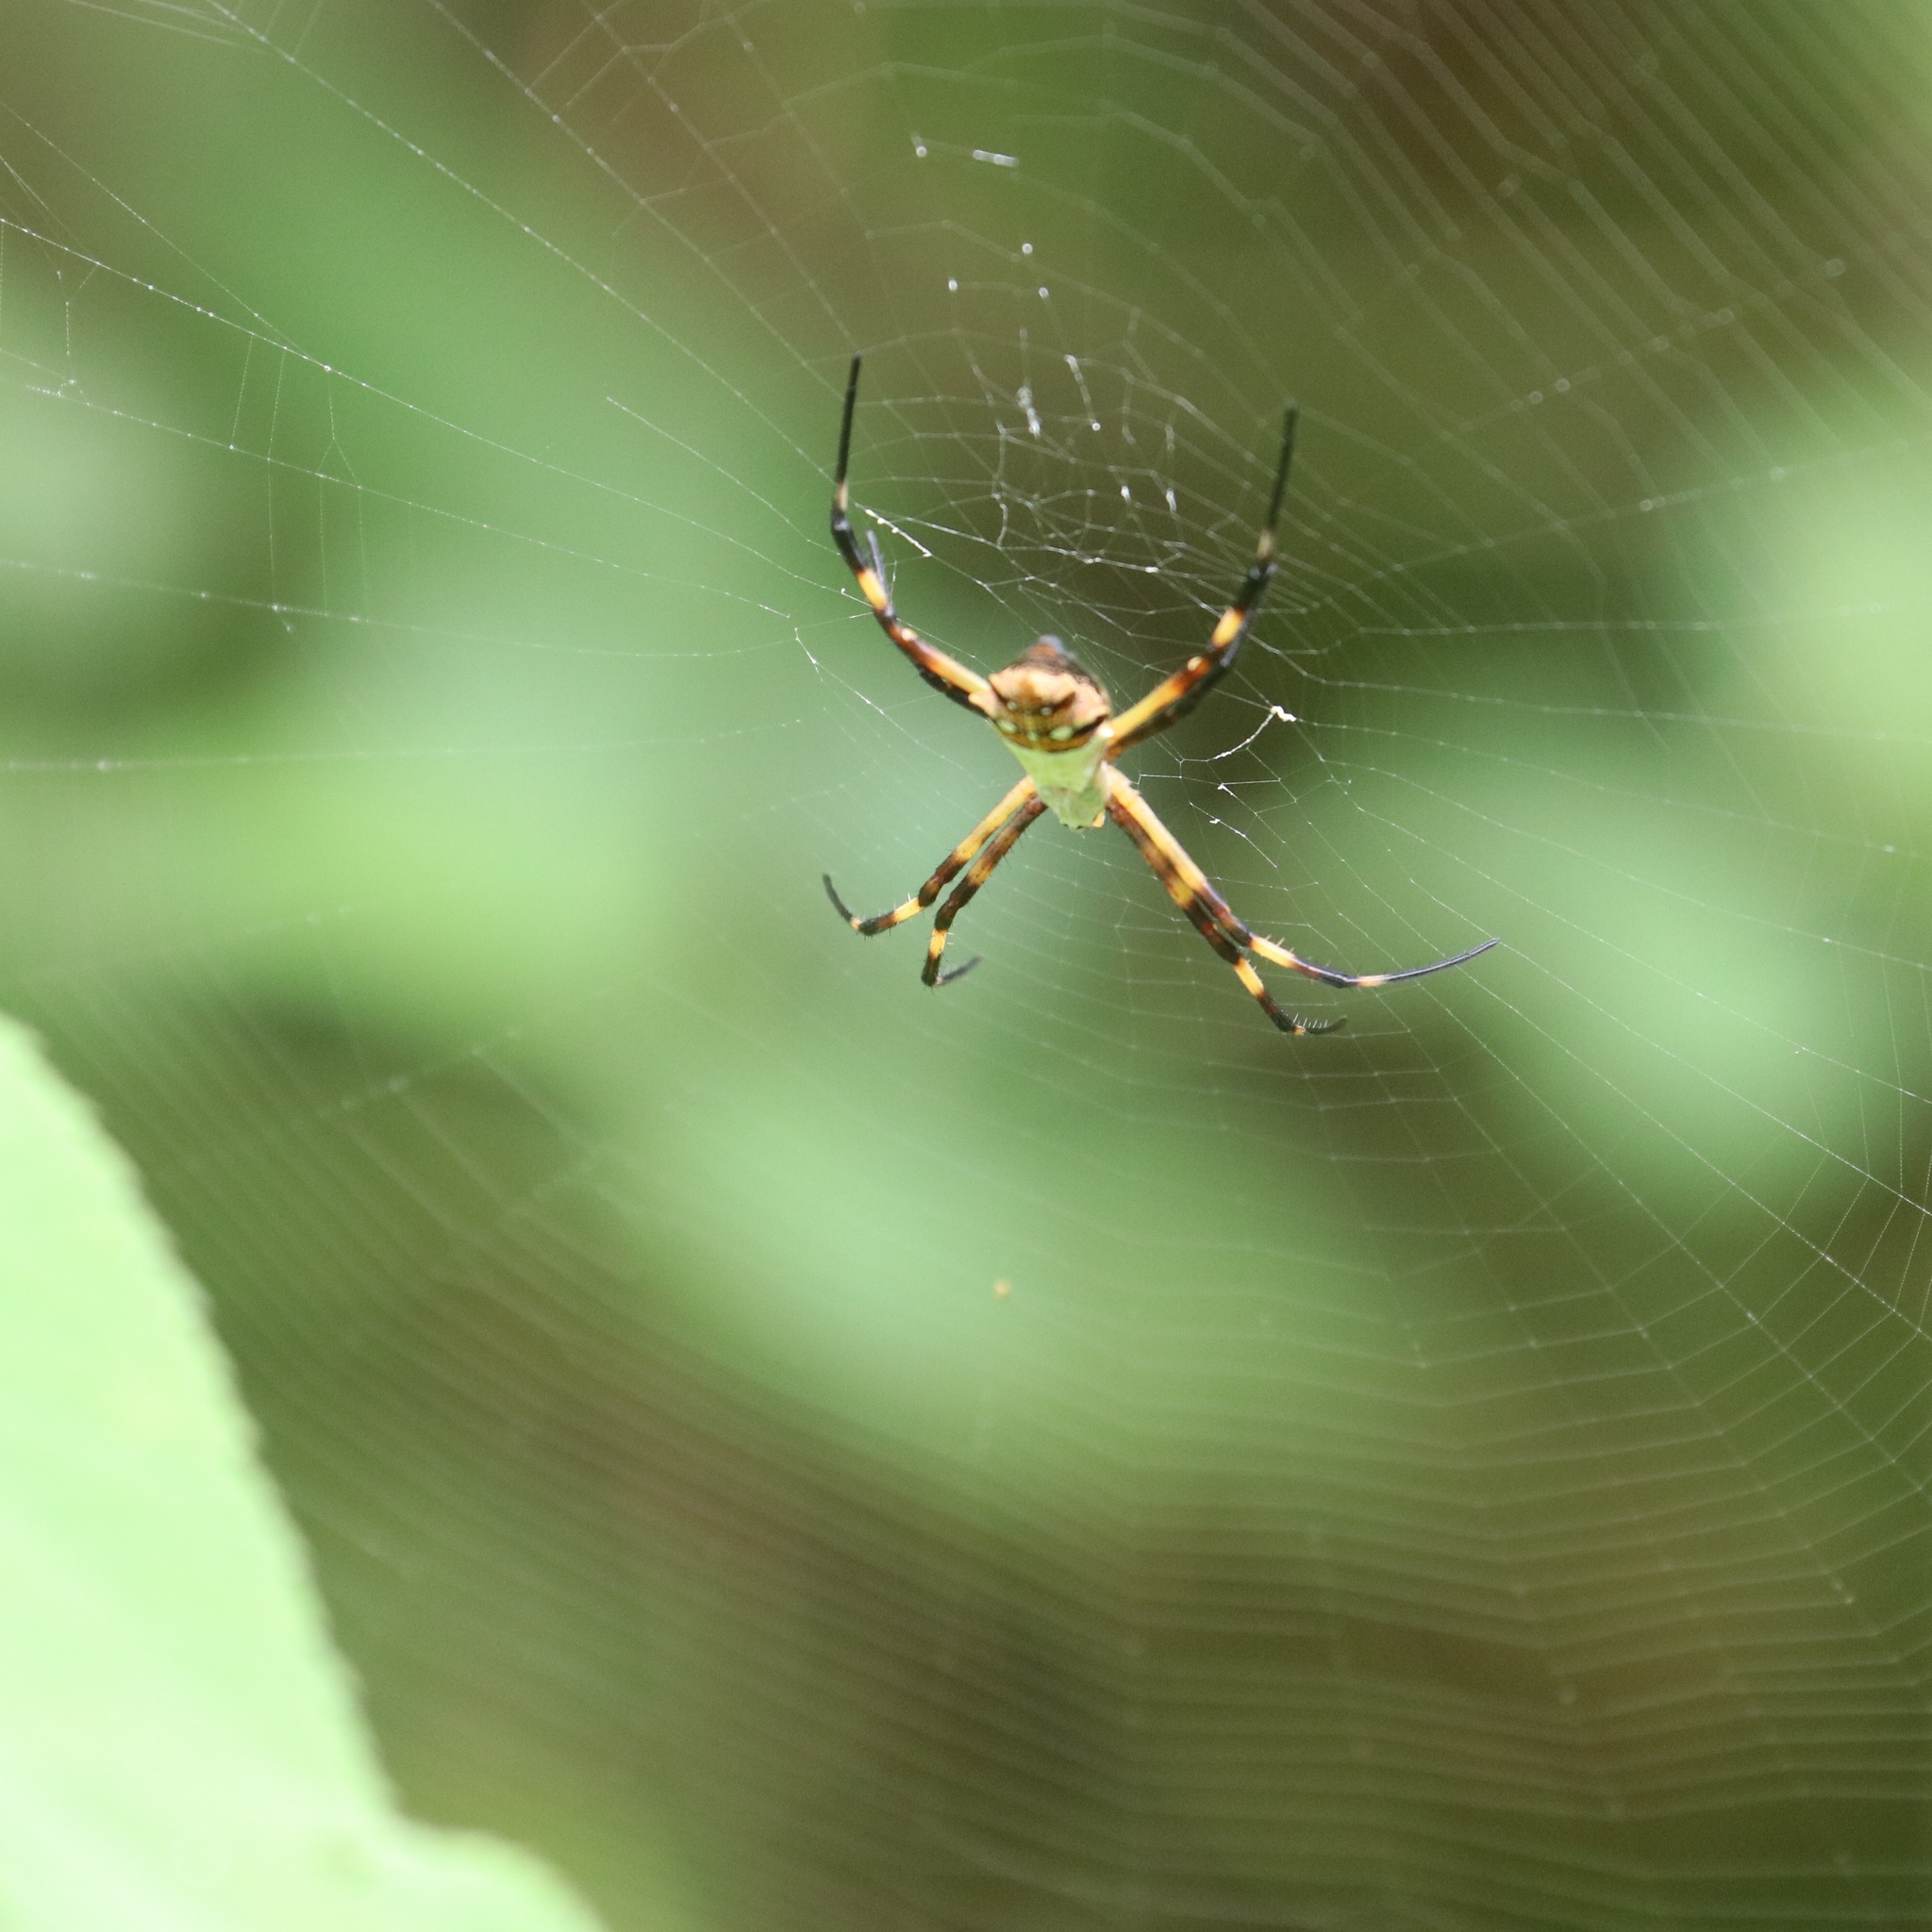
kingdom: Animalia
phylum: Arthropoda
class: Arachnida
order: Araneae
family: Araneidae
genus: Argiope
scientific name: Argiope argentata
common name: Orb weavers
